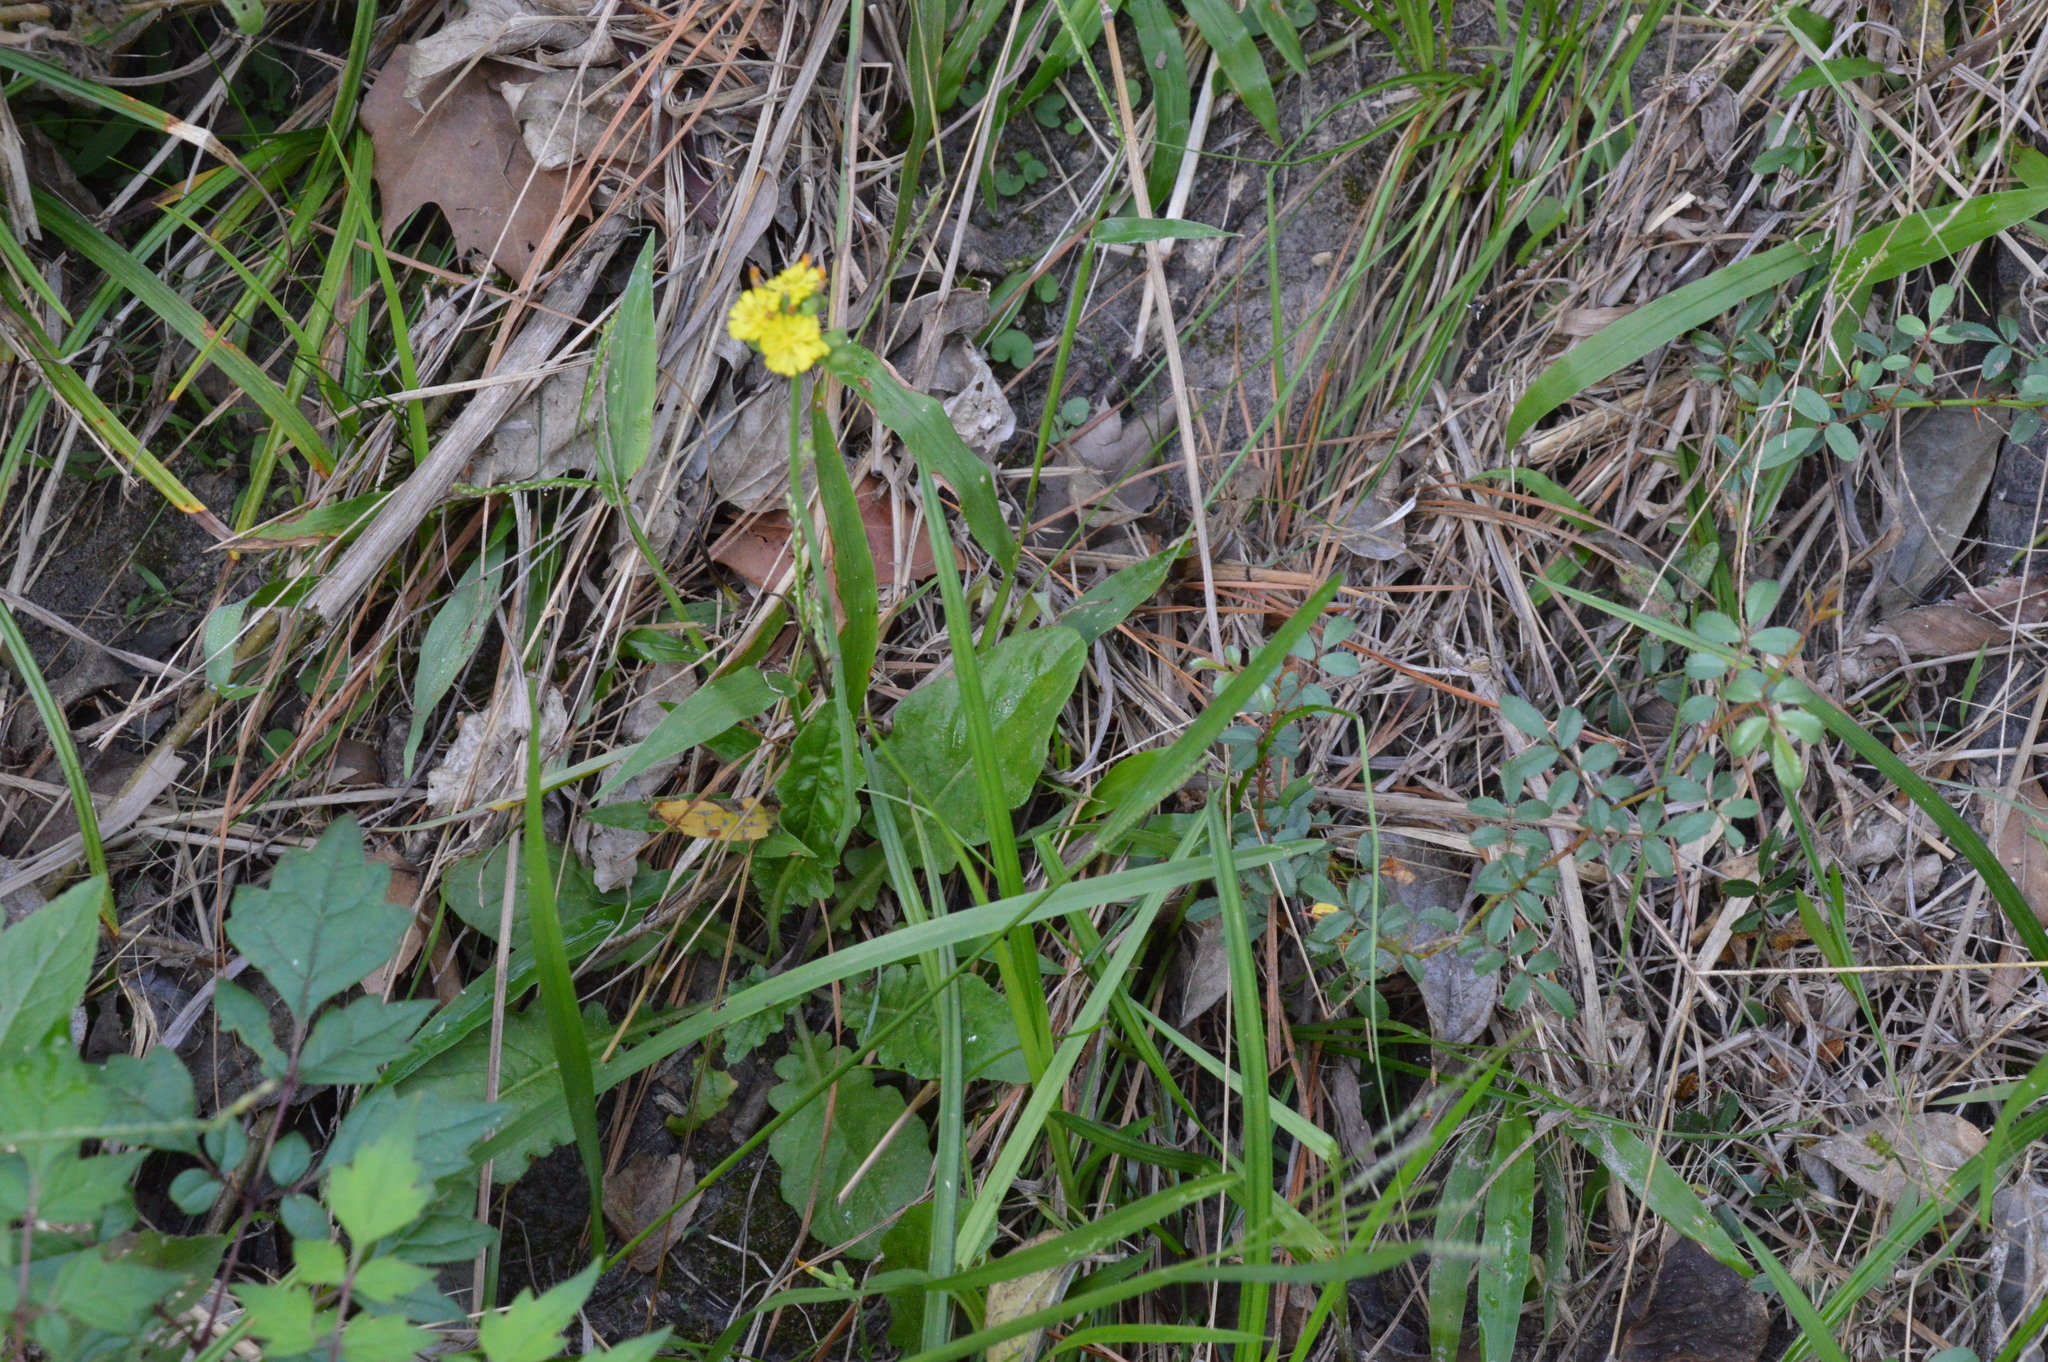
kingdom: Plantae
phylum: Tracheophyta
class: Magnoliopsida
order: Asterales
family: Asteraceae
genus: Youngia
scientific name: Youngia japonica
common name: Oriental false hawksbeard
